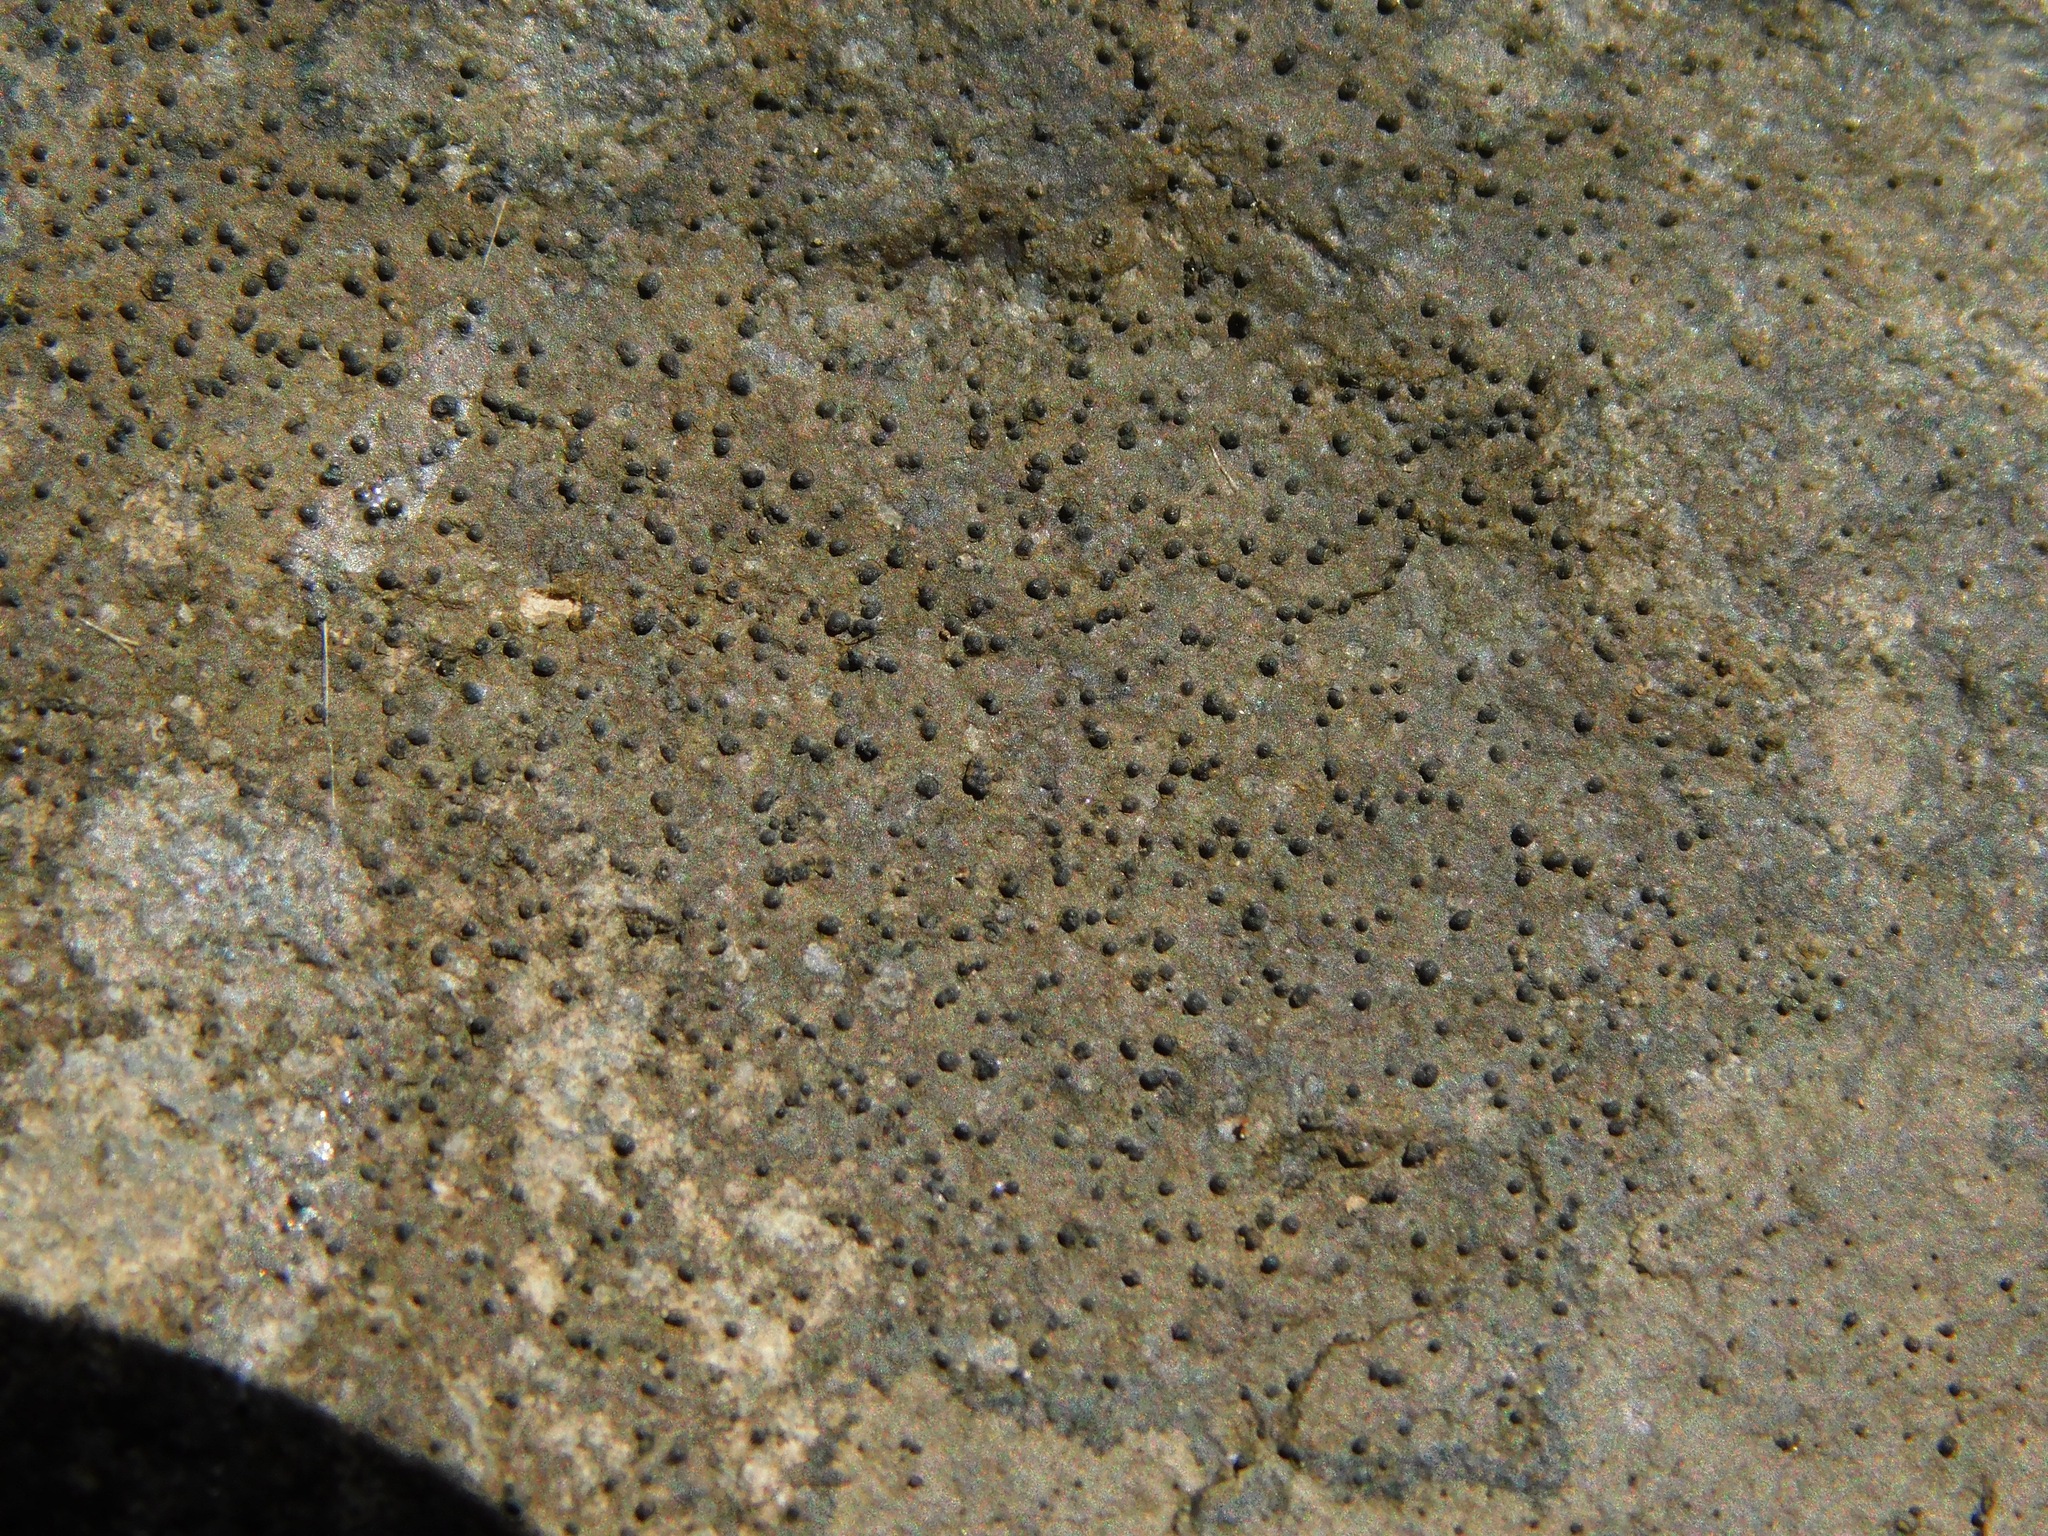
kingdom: Fungi
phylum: Ascomycota
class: Lecanoromycetes
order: Ostropales
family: Porinaceae
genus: Pseudosagedia
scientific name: Pseudosagedia guentheri
